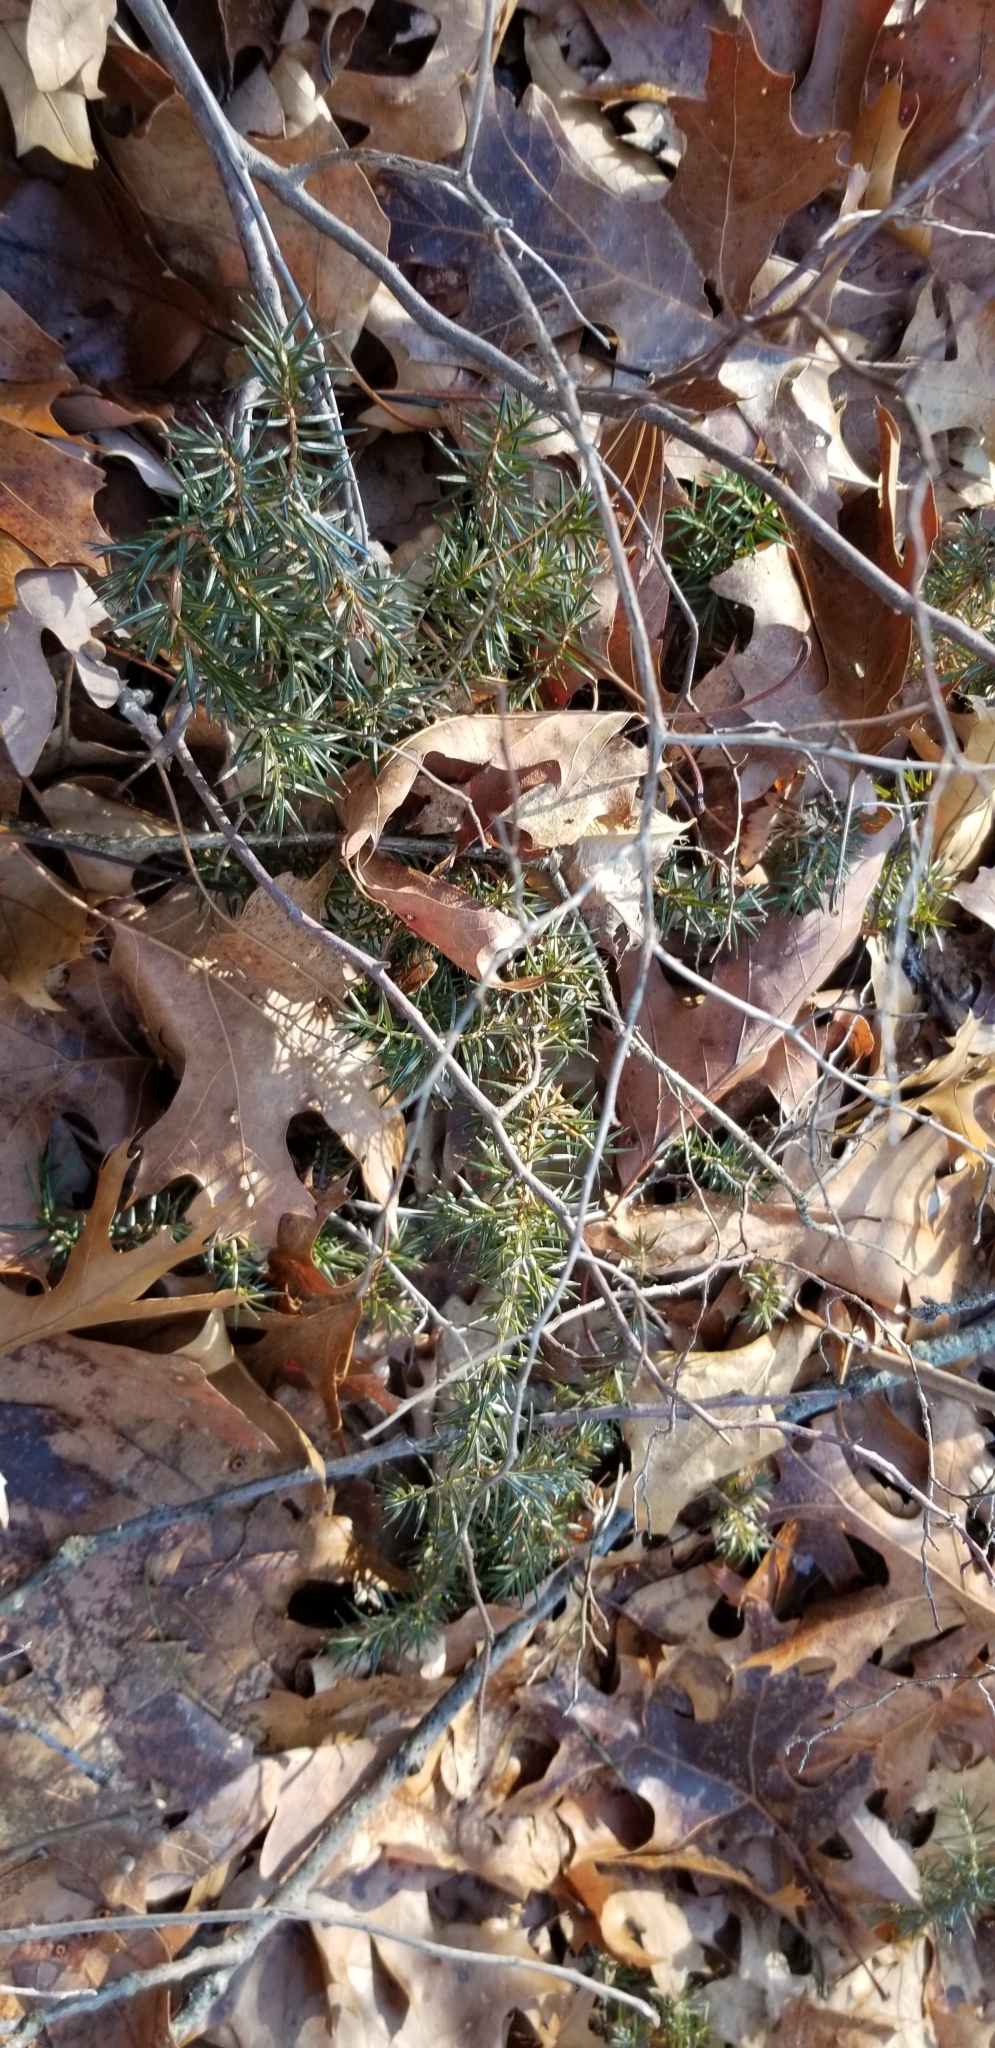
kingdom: Plantae
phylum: Tracheophyta
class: Pinopsida
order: Pinales
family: Cupressaceae
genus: Juniperus
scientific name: Juniperus communis
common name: Common juniper
